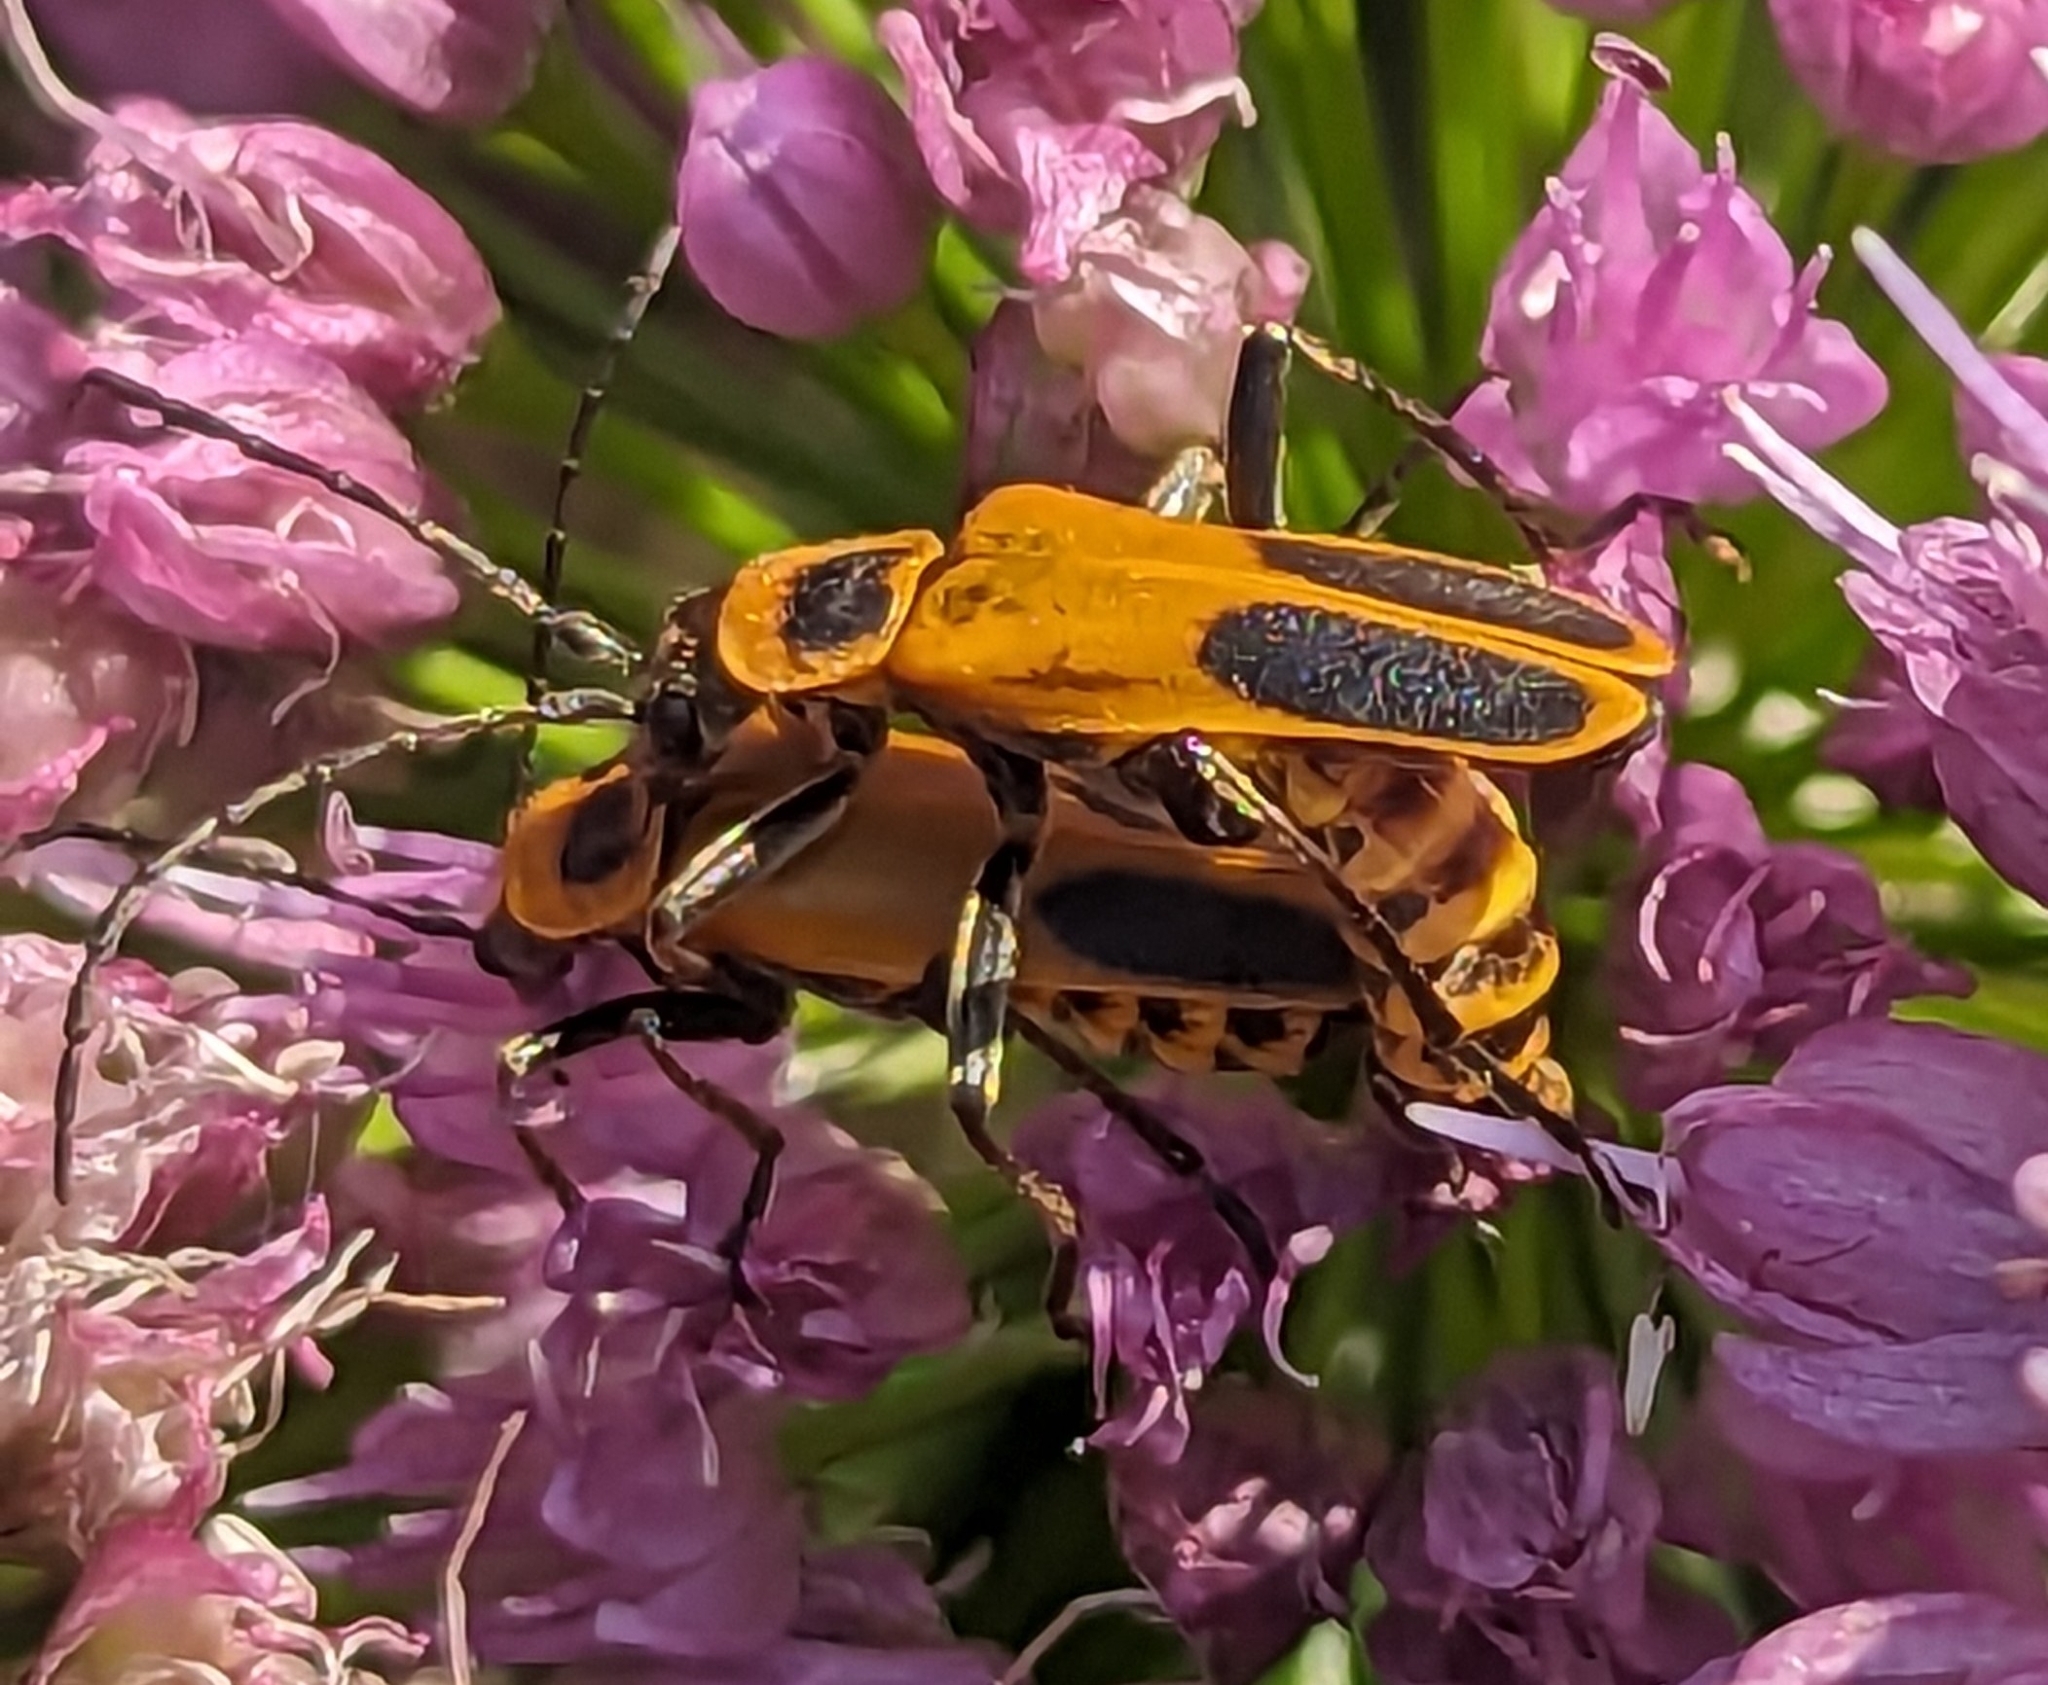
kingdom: Animalia
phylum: Arthropoda
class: Insecta
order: Coleoptera
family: Cantharidae
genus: Chauliognathus
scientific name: Chauliognathus pensylvanicus
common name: Goldenrod soldier beetle
